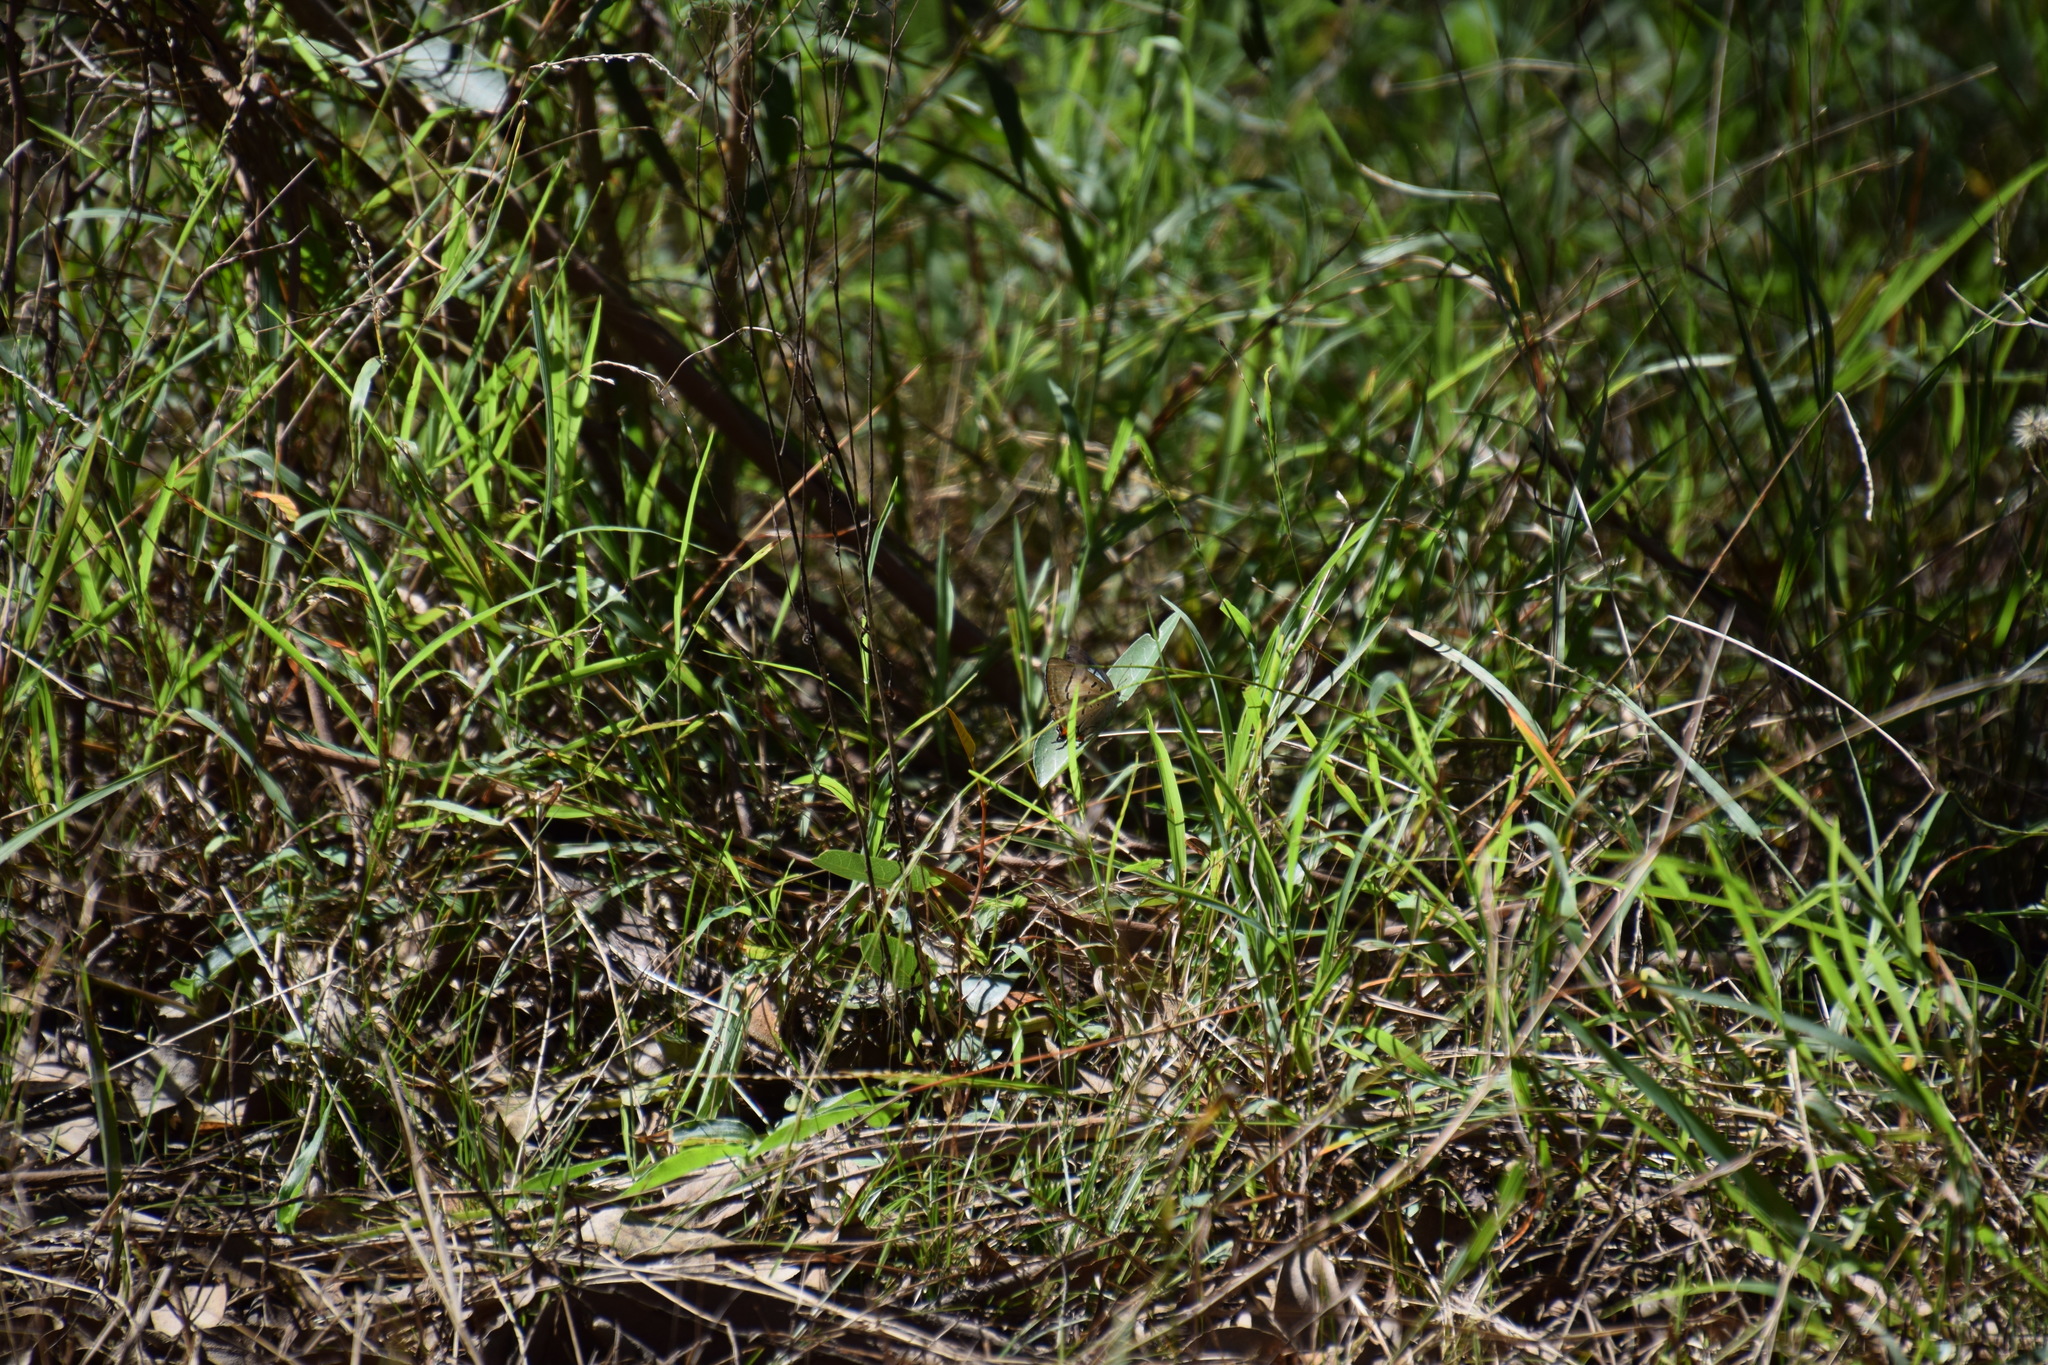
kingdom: Animalia
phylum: Arthropoda
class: Insecta
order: Lepidoptera
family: Lycaenidae
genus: Jalmenus
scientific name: Jalmenus evagoras
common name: Common imperial blue
